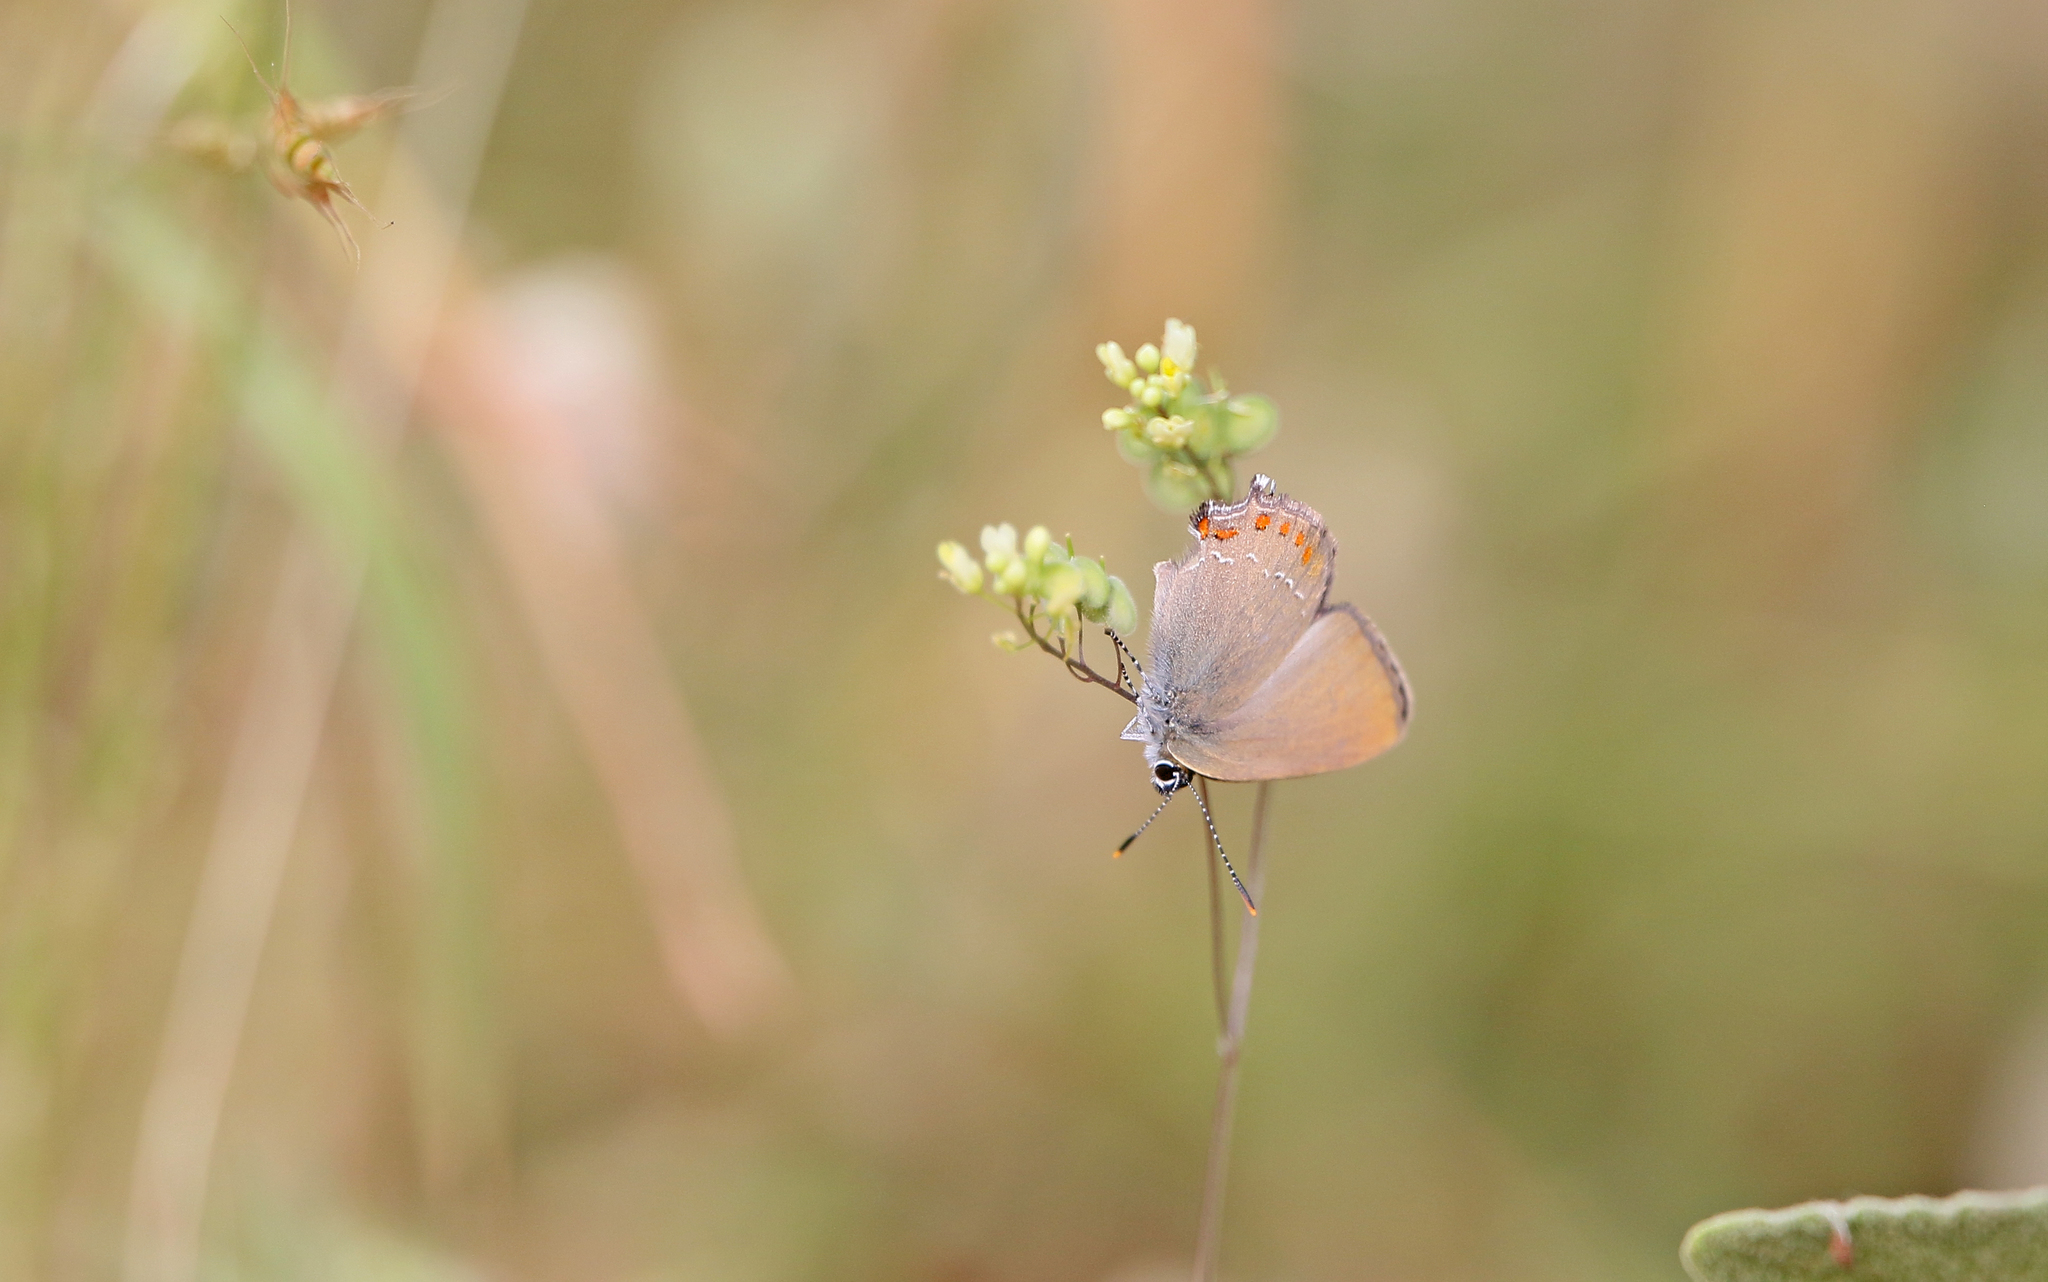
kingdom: Animalia
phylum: Arthropoda
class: Insecta
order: Lepidoptera
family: Lycaenidae
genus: Fixsenia
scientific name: Fixsenia esculi
